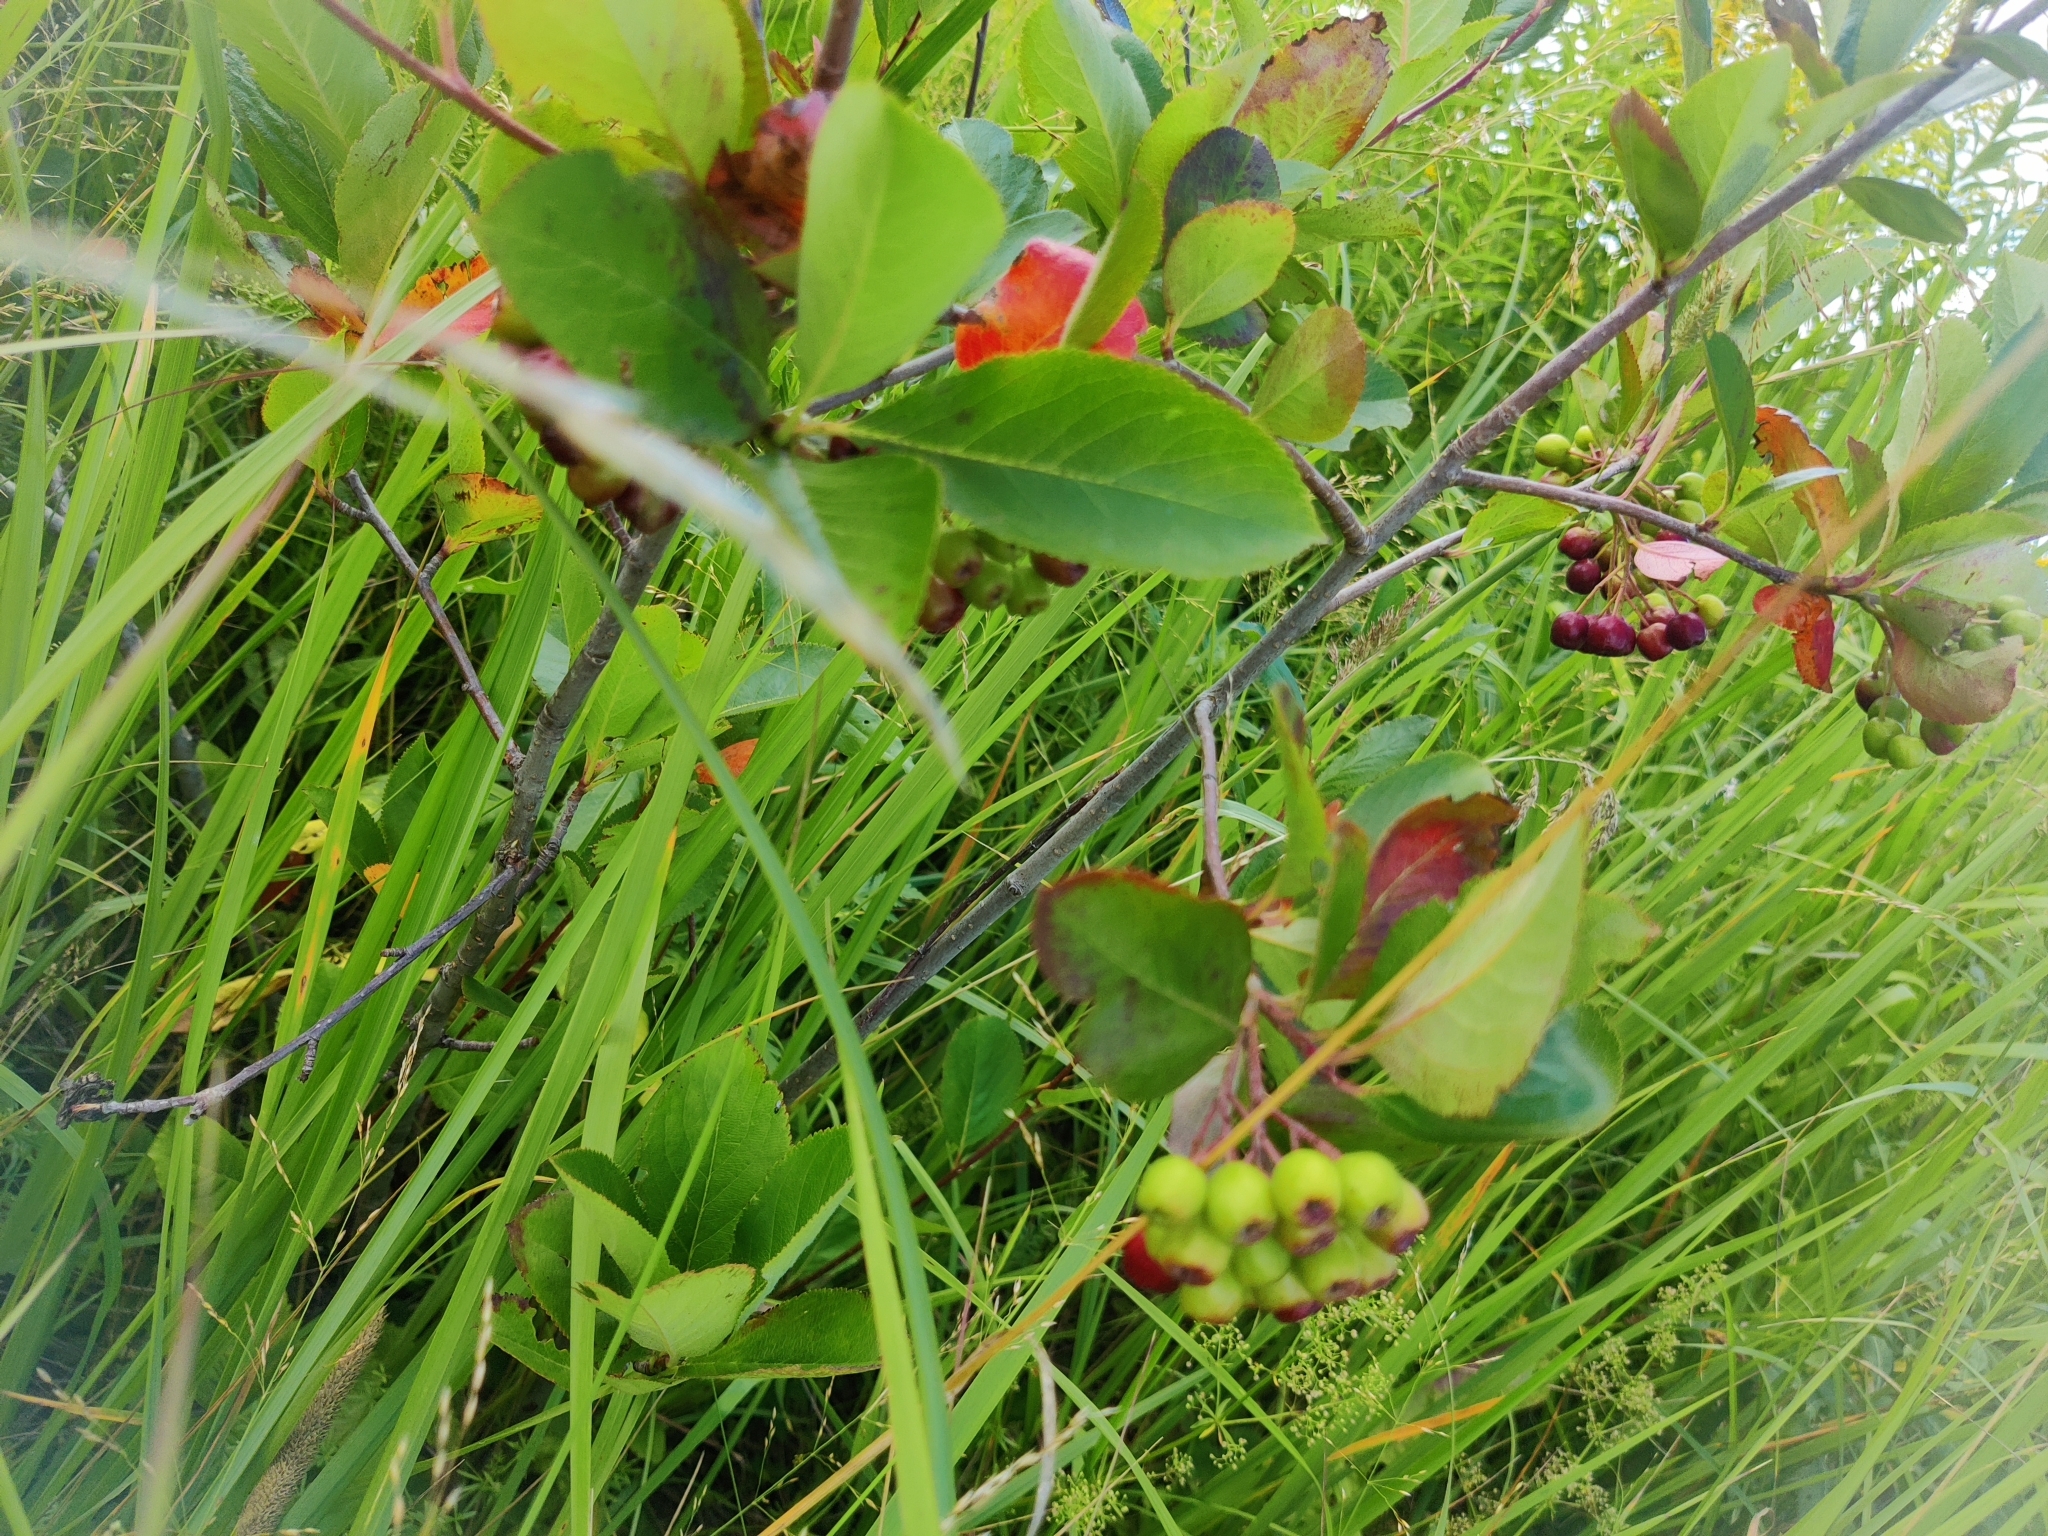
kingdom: Plantae
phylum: Tracheophyta
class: Magnoliopsida
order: Rosales
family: Rosaceae
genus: Sorbaronia
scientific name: Sorbaronia arsenii
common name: Arsène's mountain-ash
